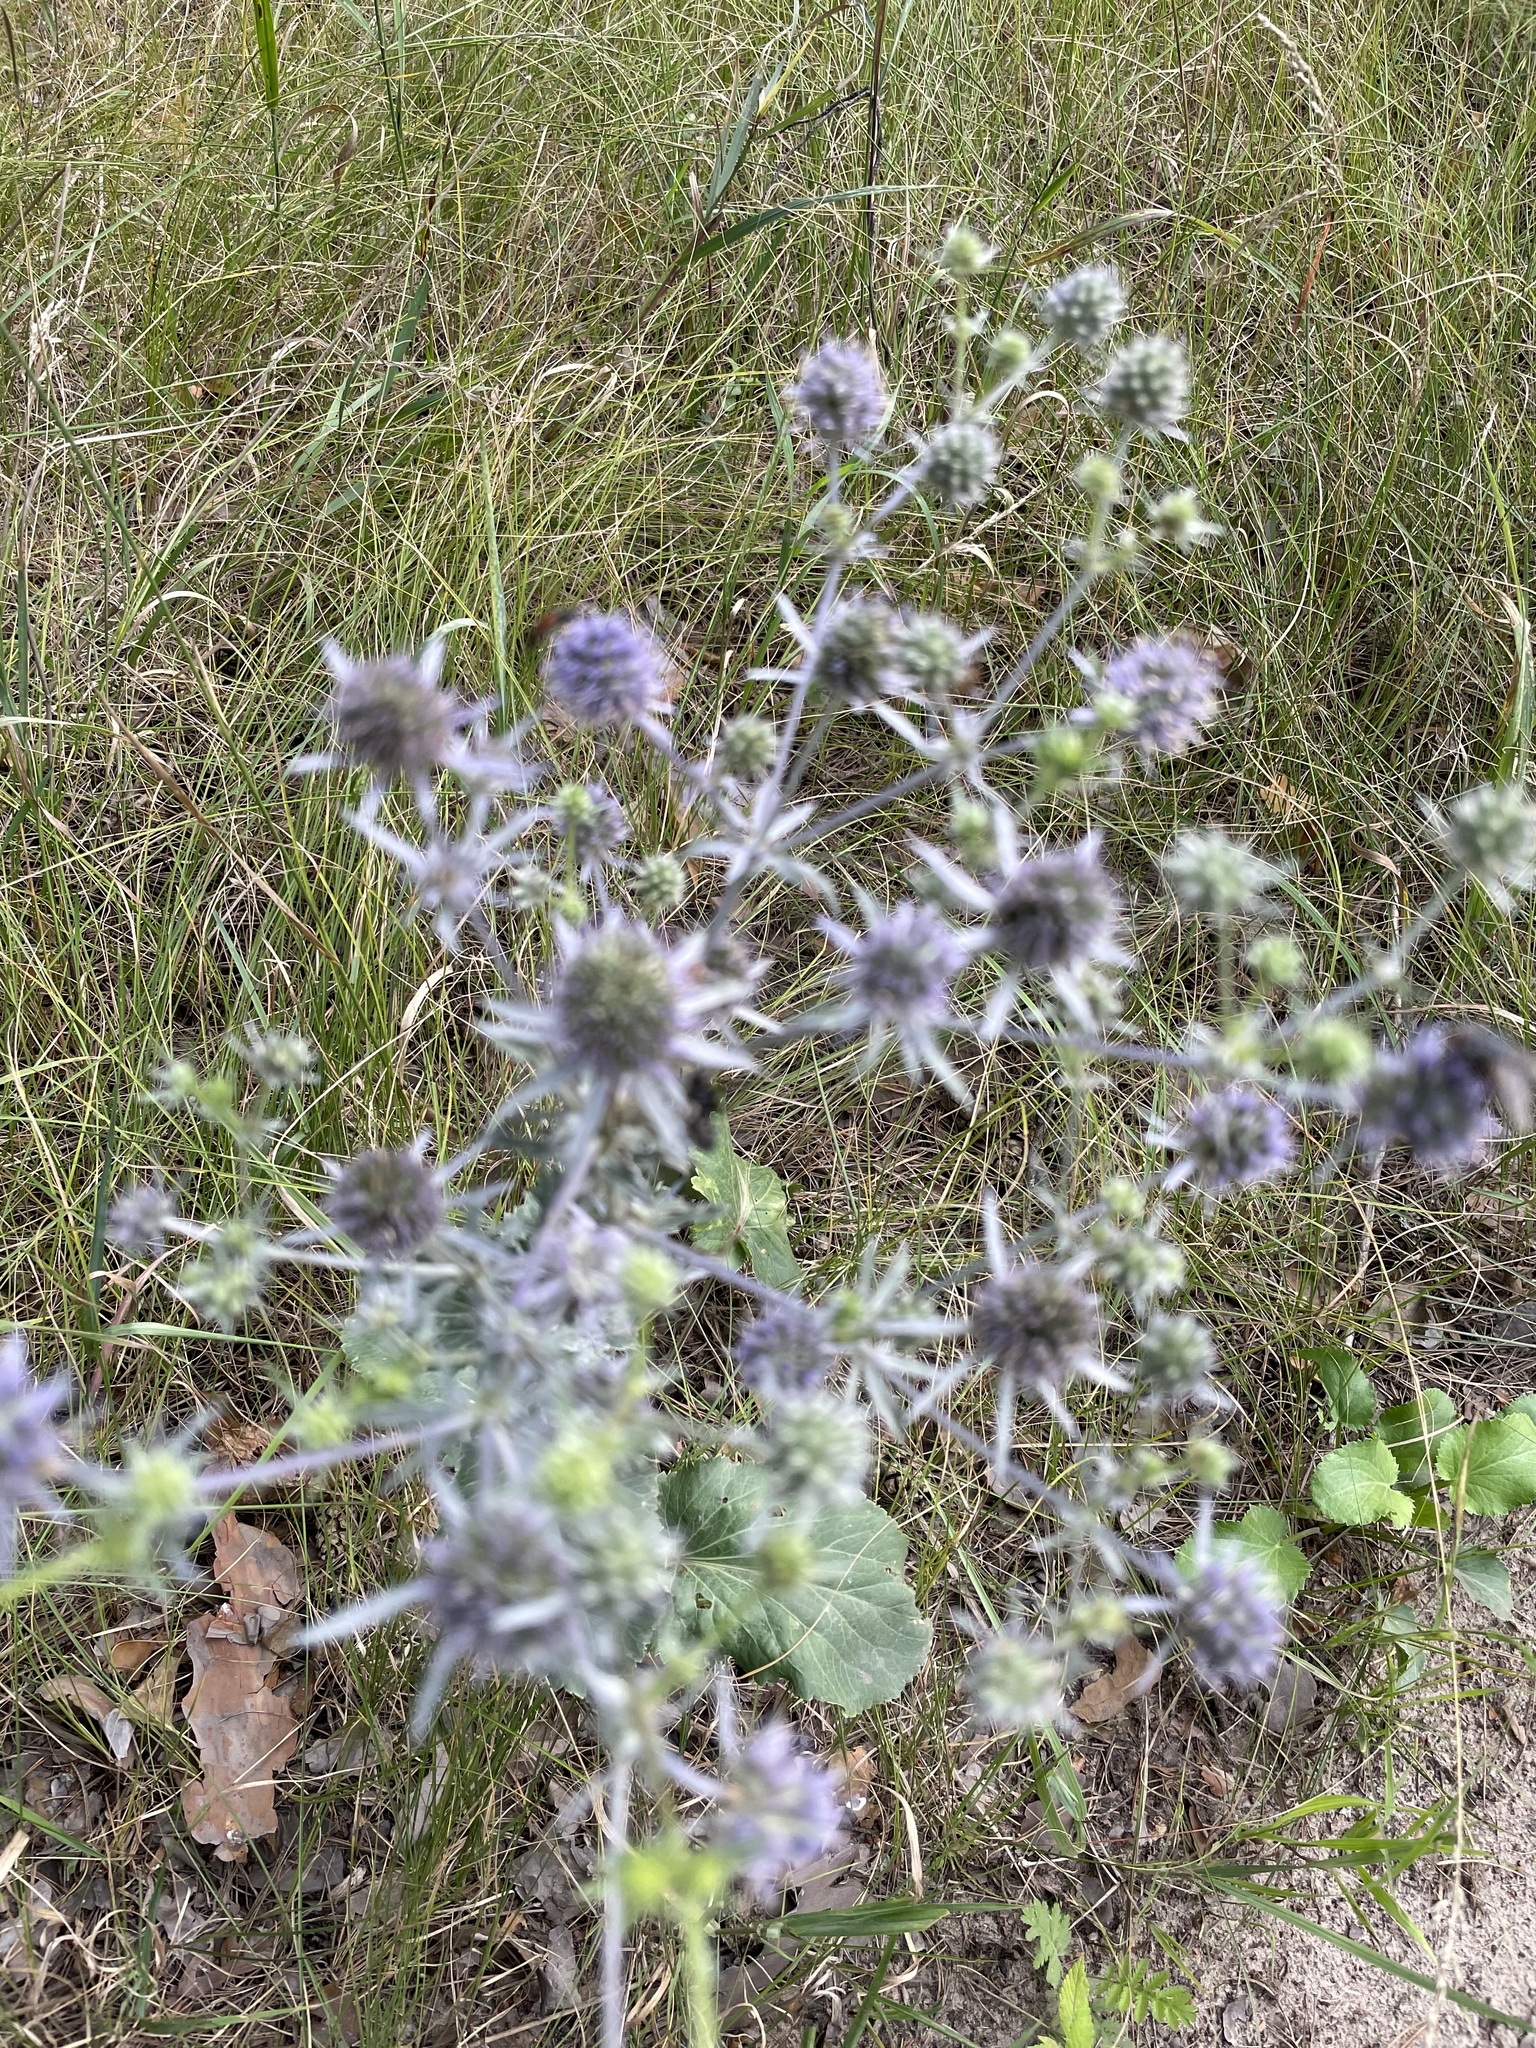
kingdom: Plantae
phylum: Tracheophyta
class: Magnoliopsida
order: Apiales
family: Apiaceae
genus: Eryngium
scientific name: Eryngium planum
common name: Blue eryngo
